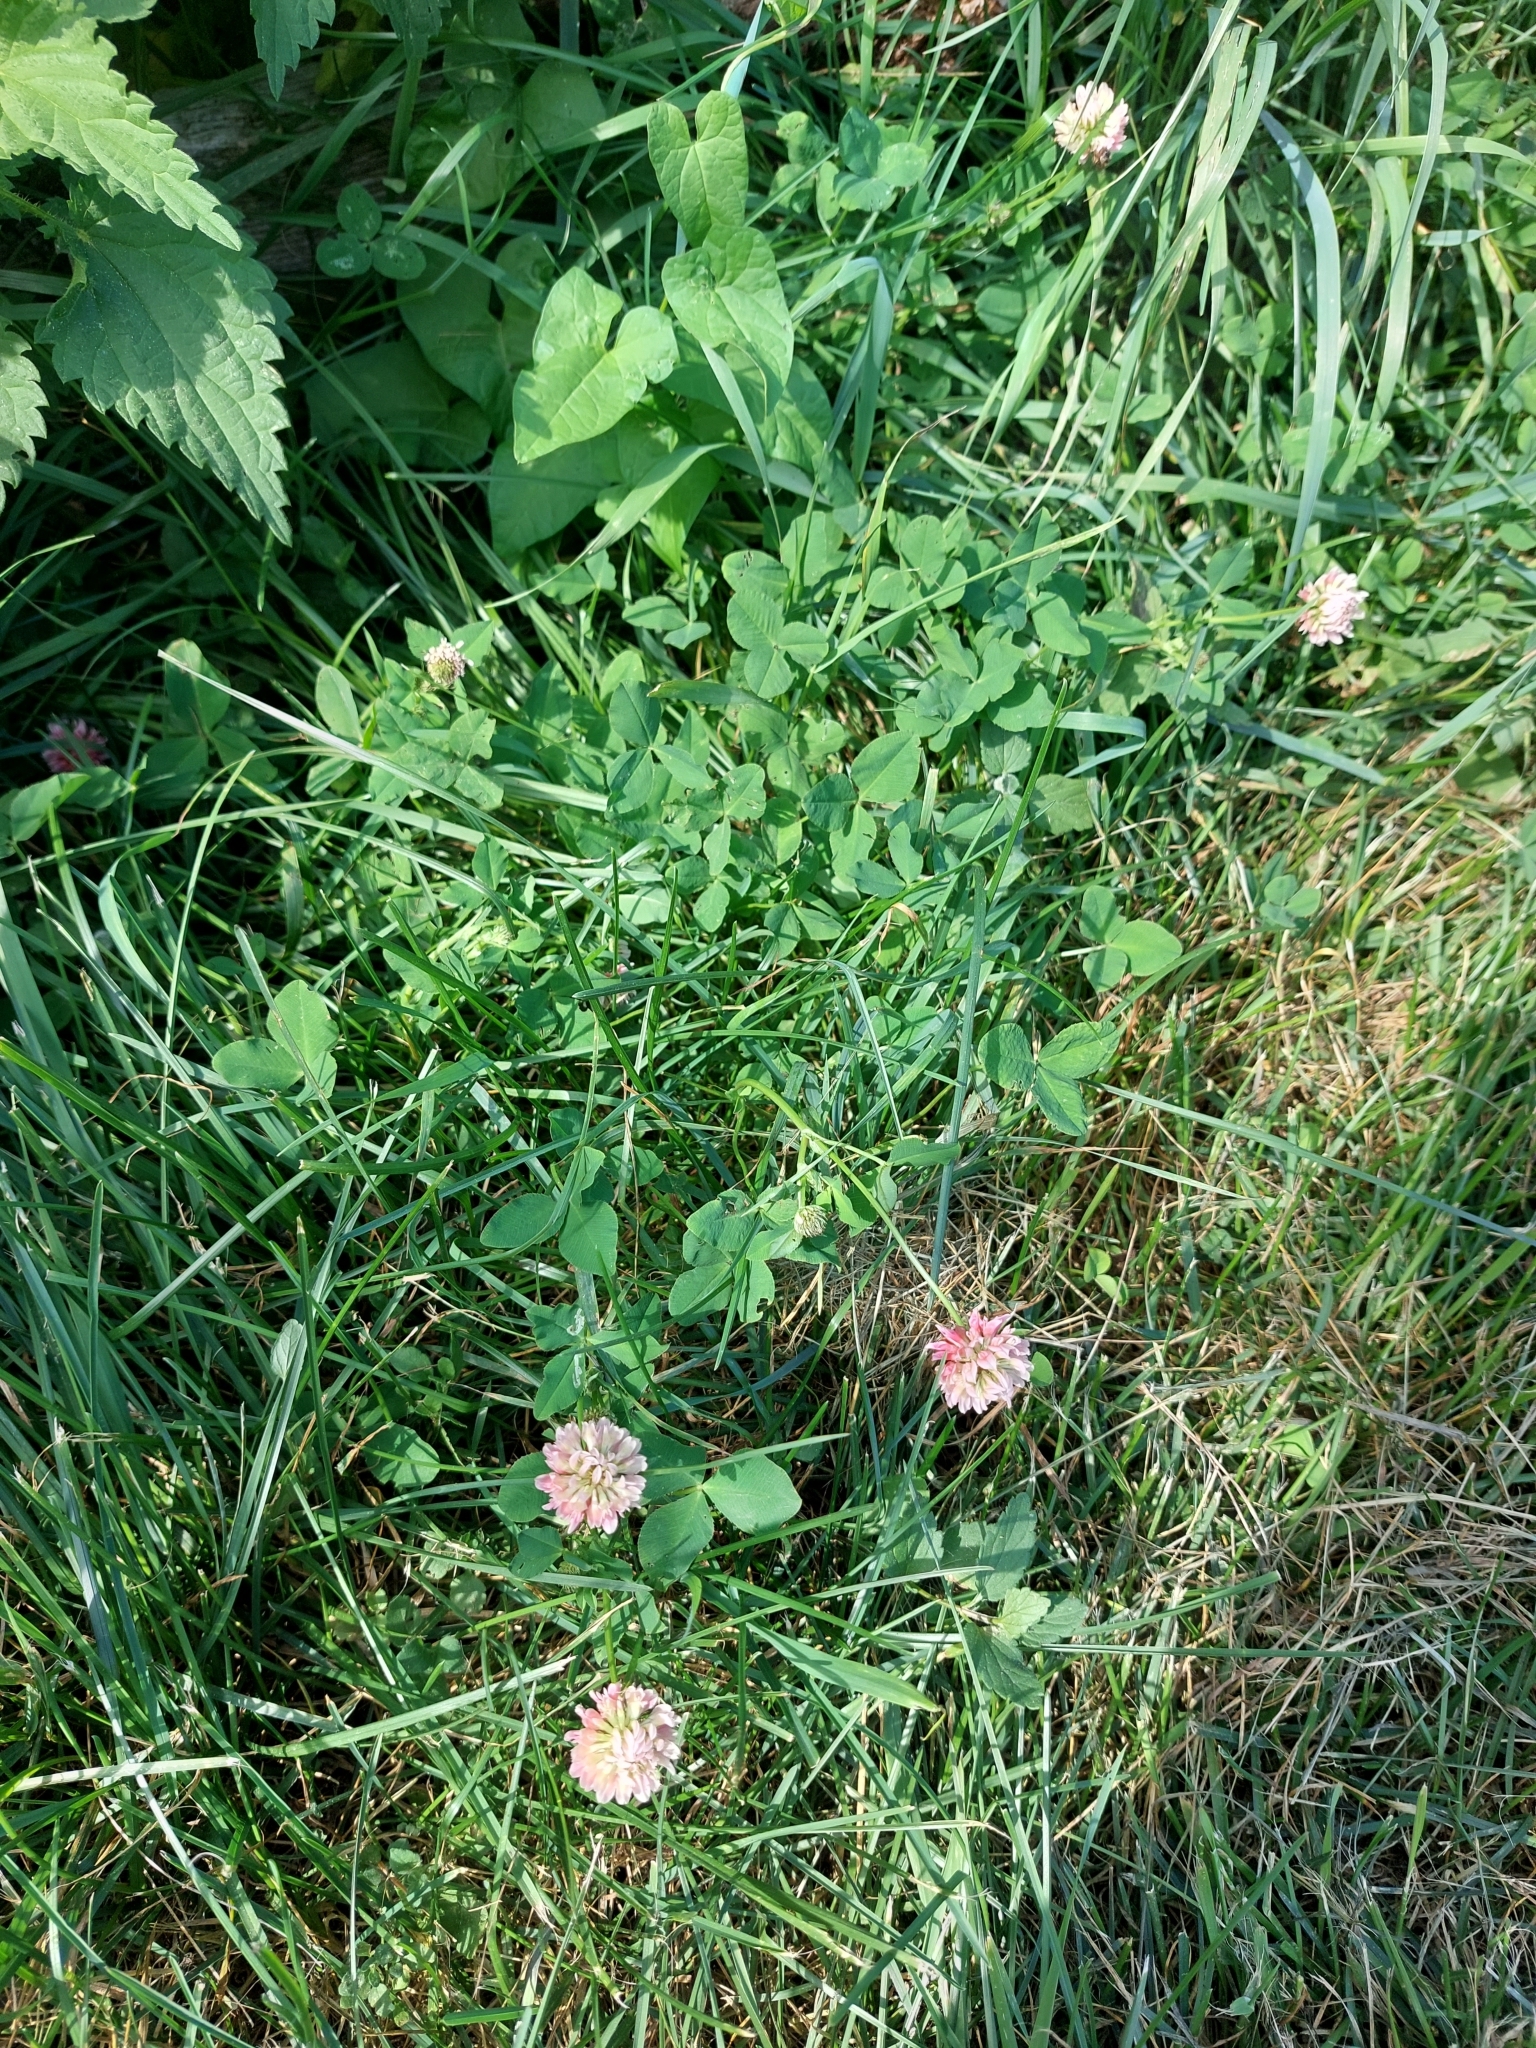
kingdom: Plantae
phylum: Tracheophyta
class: Magnoliopsida
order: Fabales
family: Fabaceae
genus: Trifolium
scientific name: Trifolium hybridum
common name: Alsike clover
